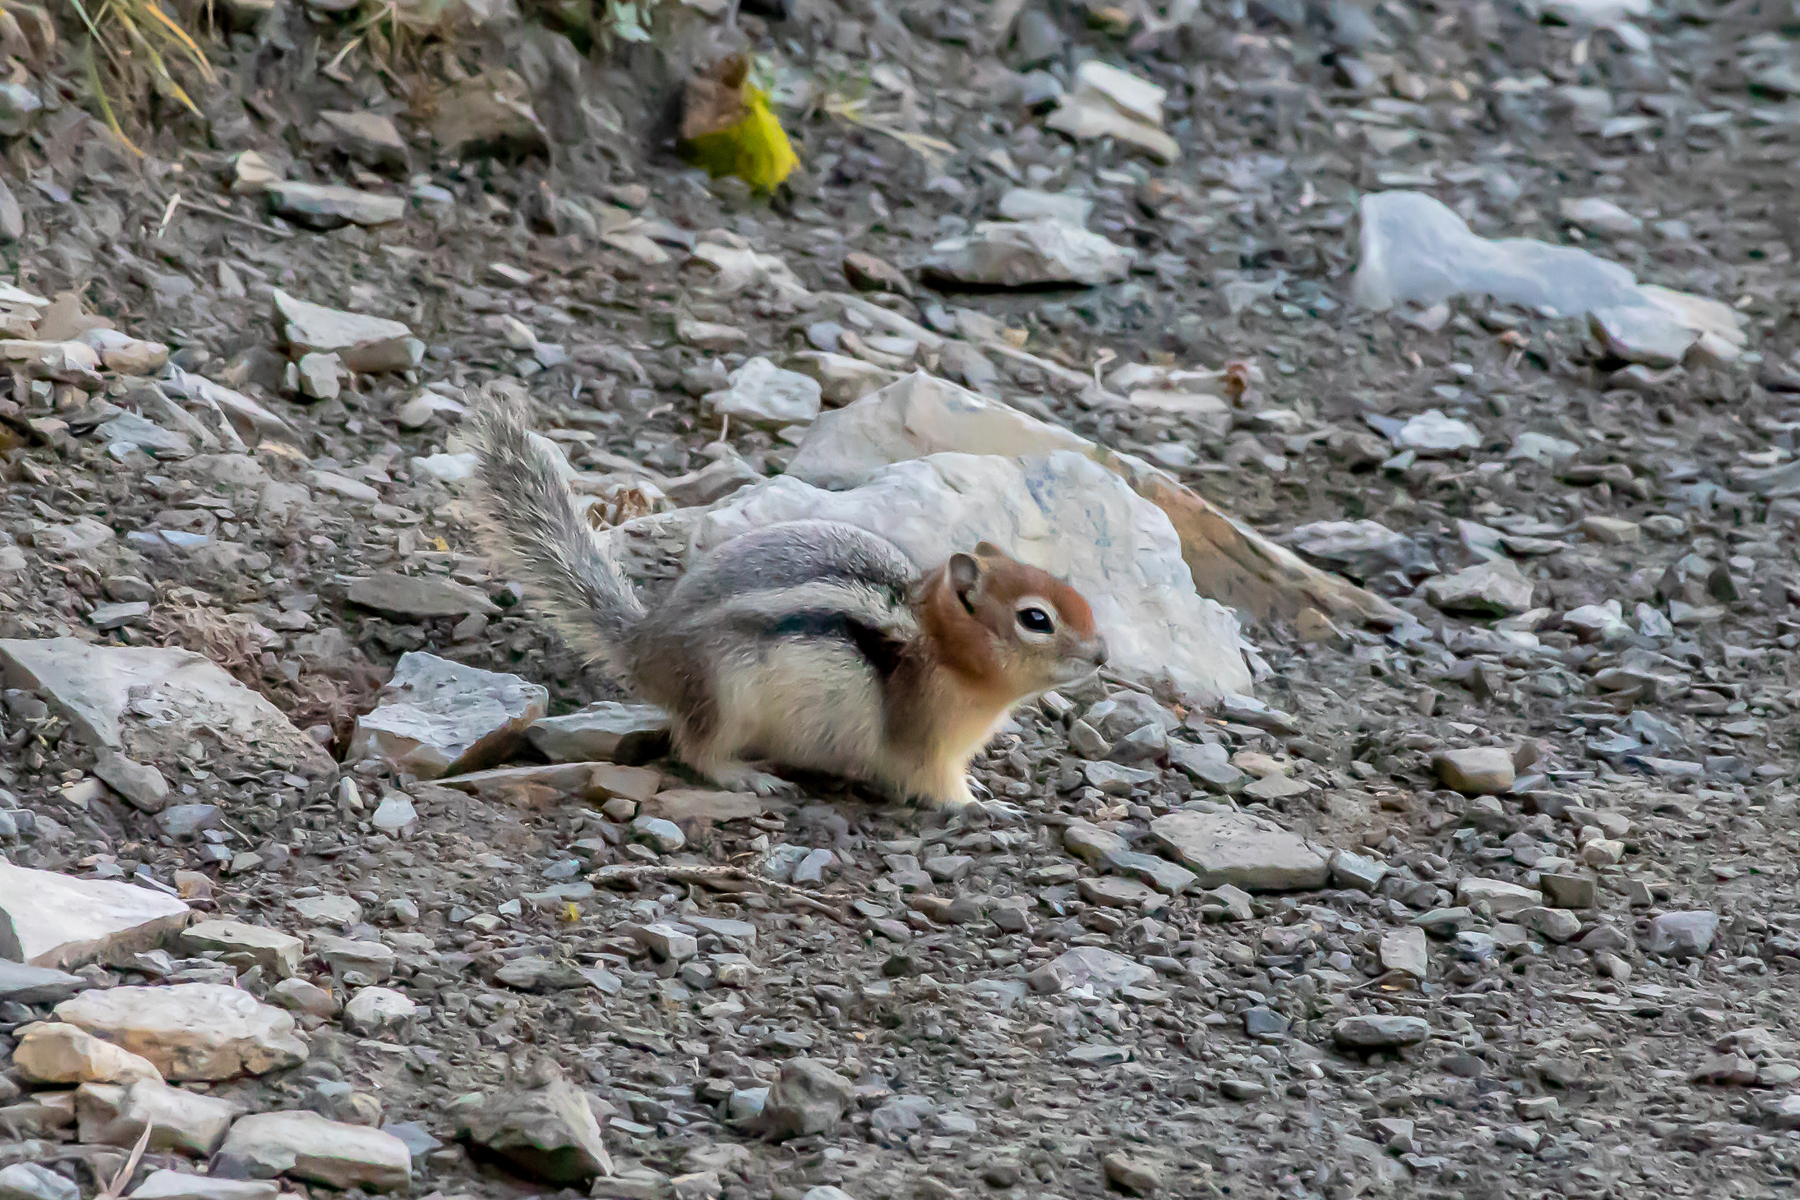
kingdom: Animalia
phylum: Chordata
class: Mammalia
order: Rodentia
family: Sciuridae
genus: Callospermophilus
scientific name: Callospermophilus lateralis
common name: Golden-mantled ground squirrel
